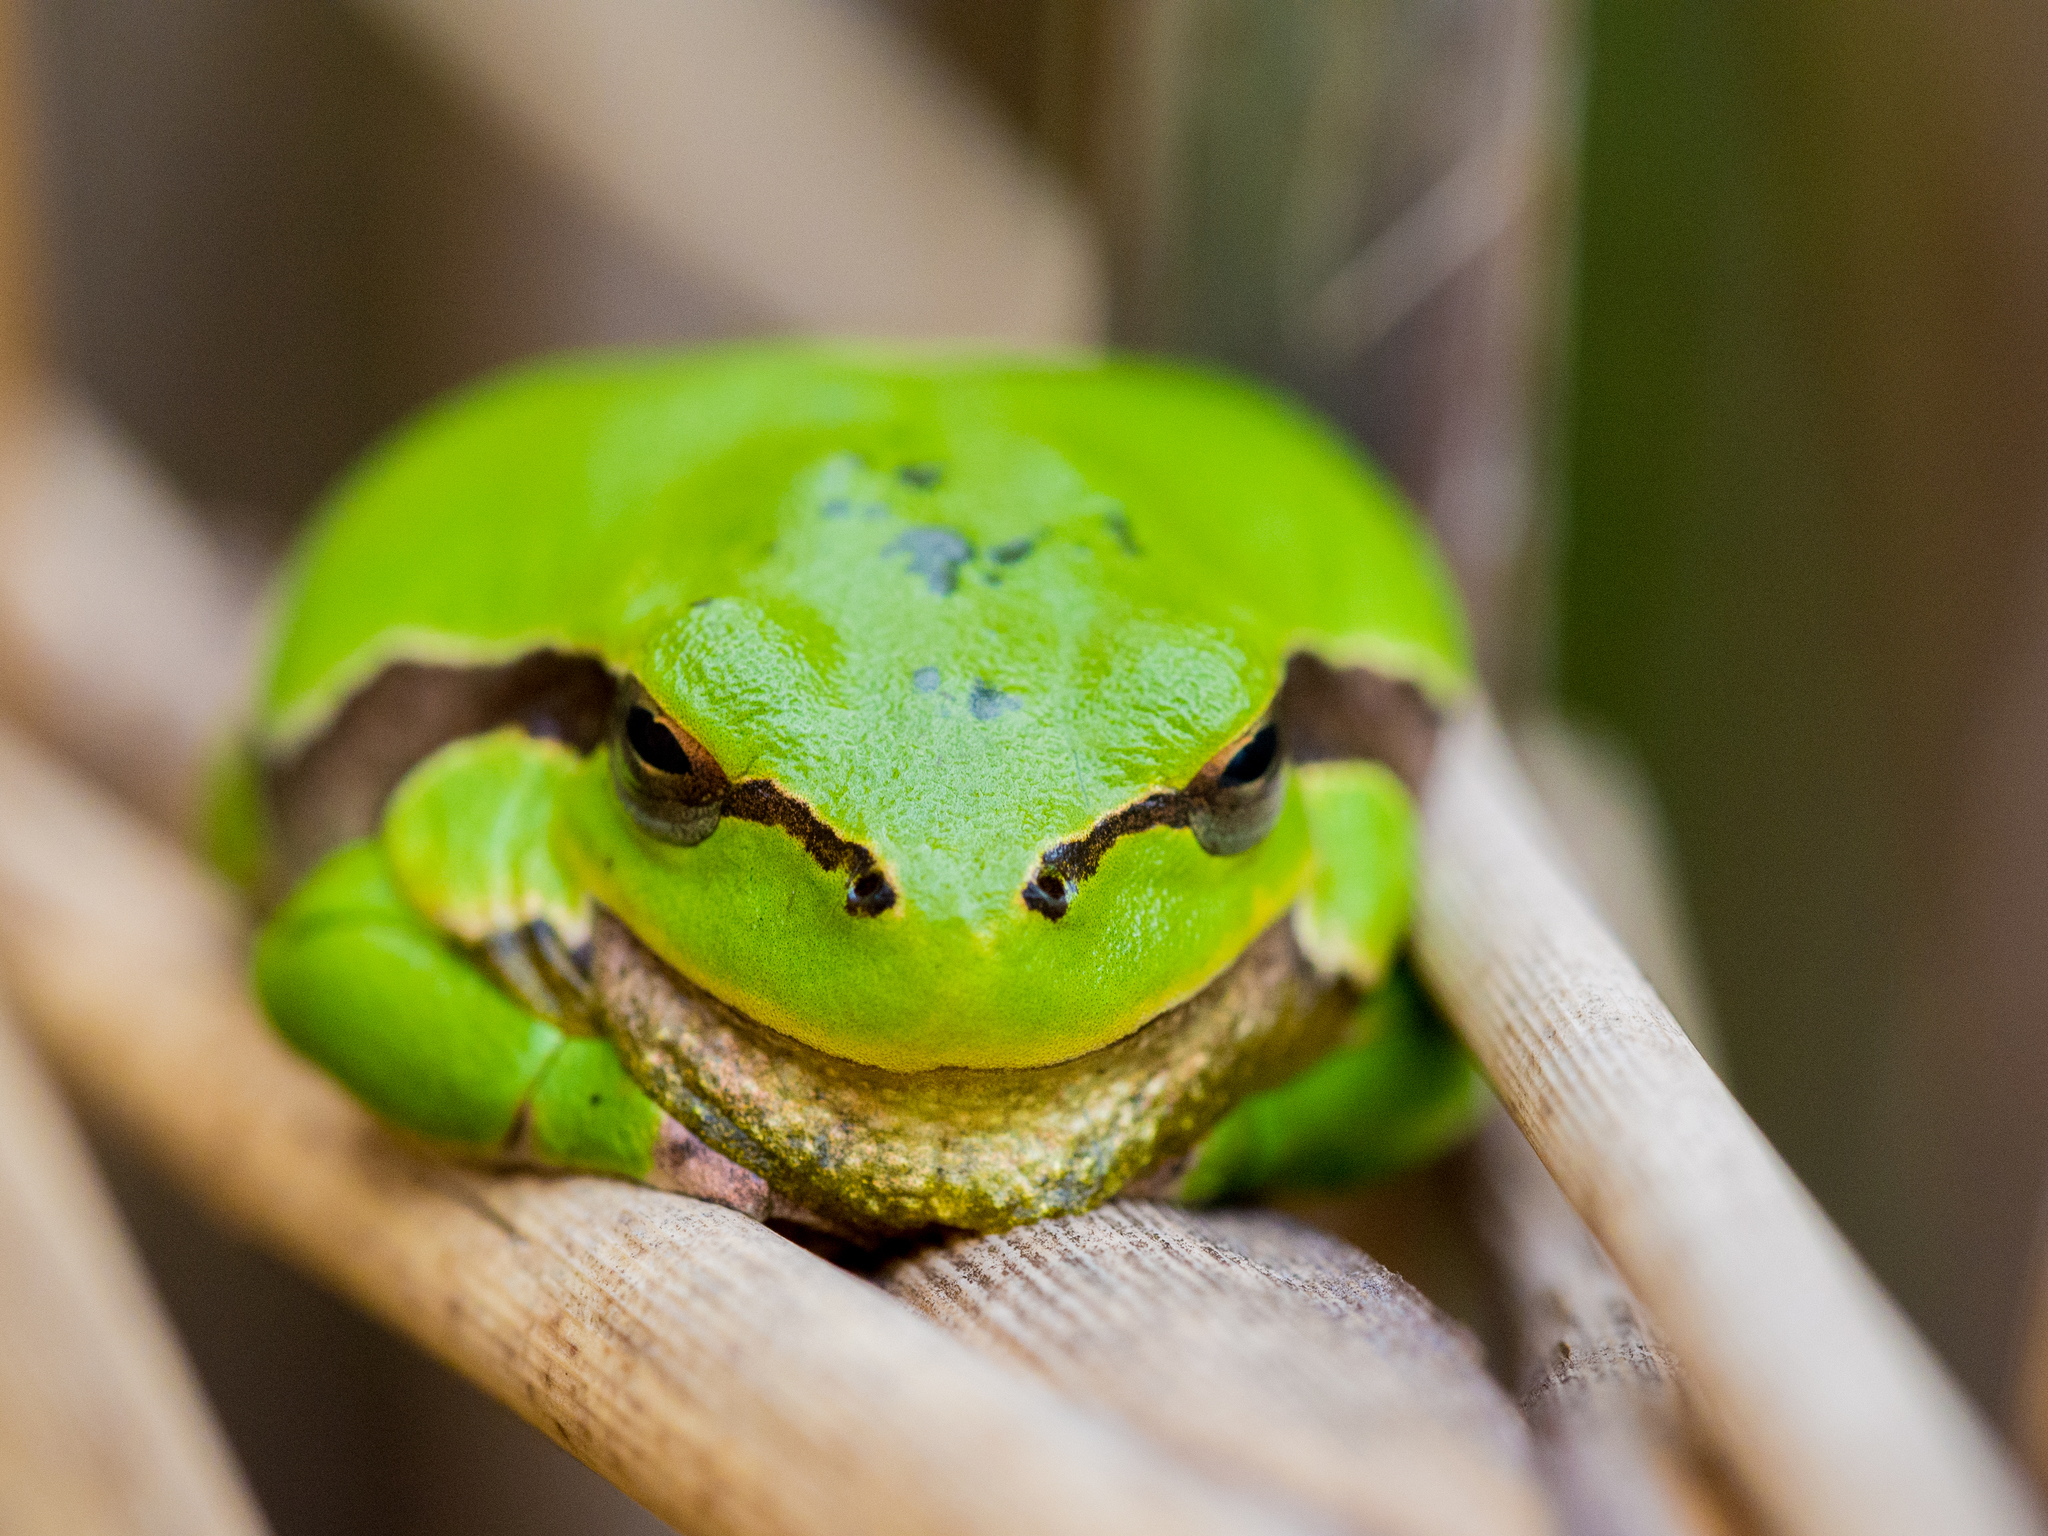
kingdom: Animalia
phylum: Chordata
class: Amphibia
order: Anura
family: Hylidae
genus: Hyla
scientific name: Hyla arborea
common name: Common tree frog
